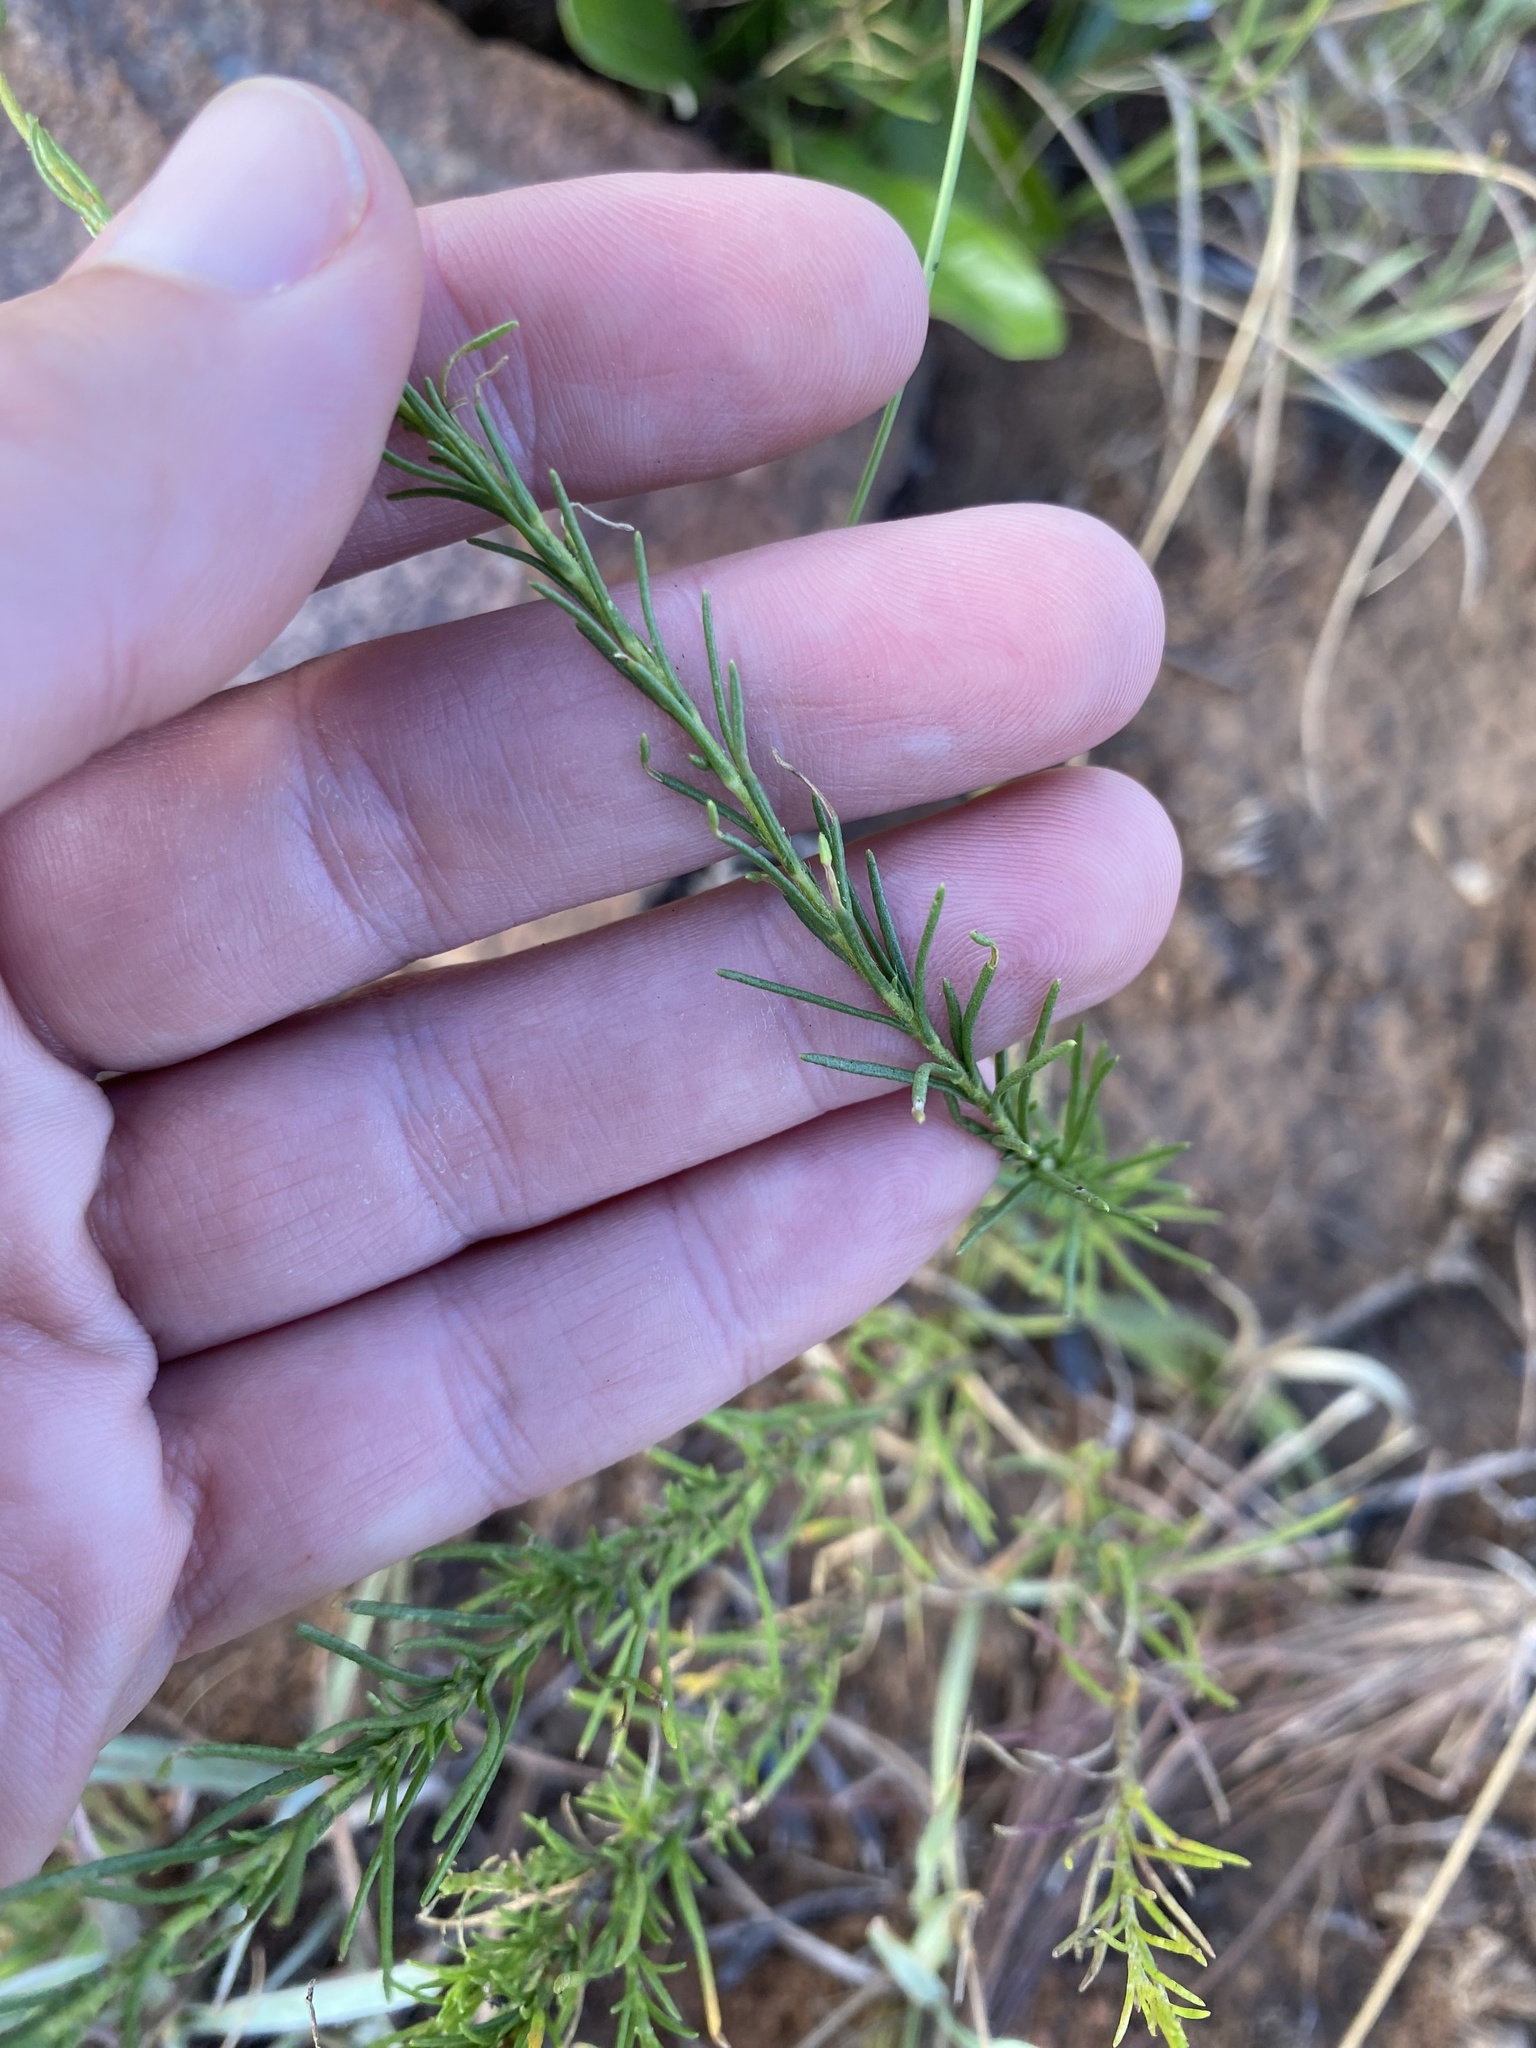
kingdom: Plantae
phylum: Tracheophyta
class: Magnoliopsida
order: Asterales
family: Asteraceae
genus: Felicia
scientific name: Felicia muricata
